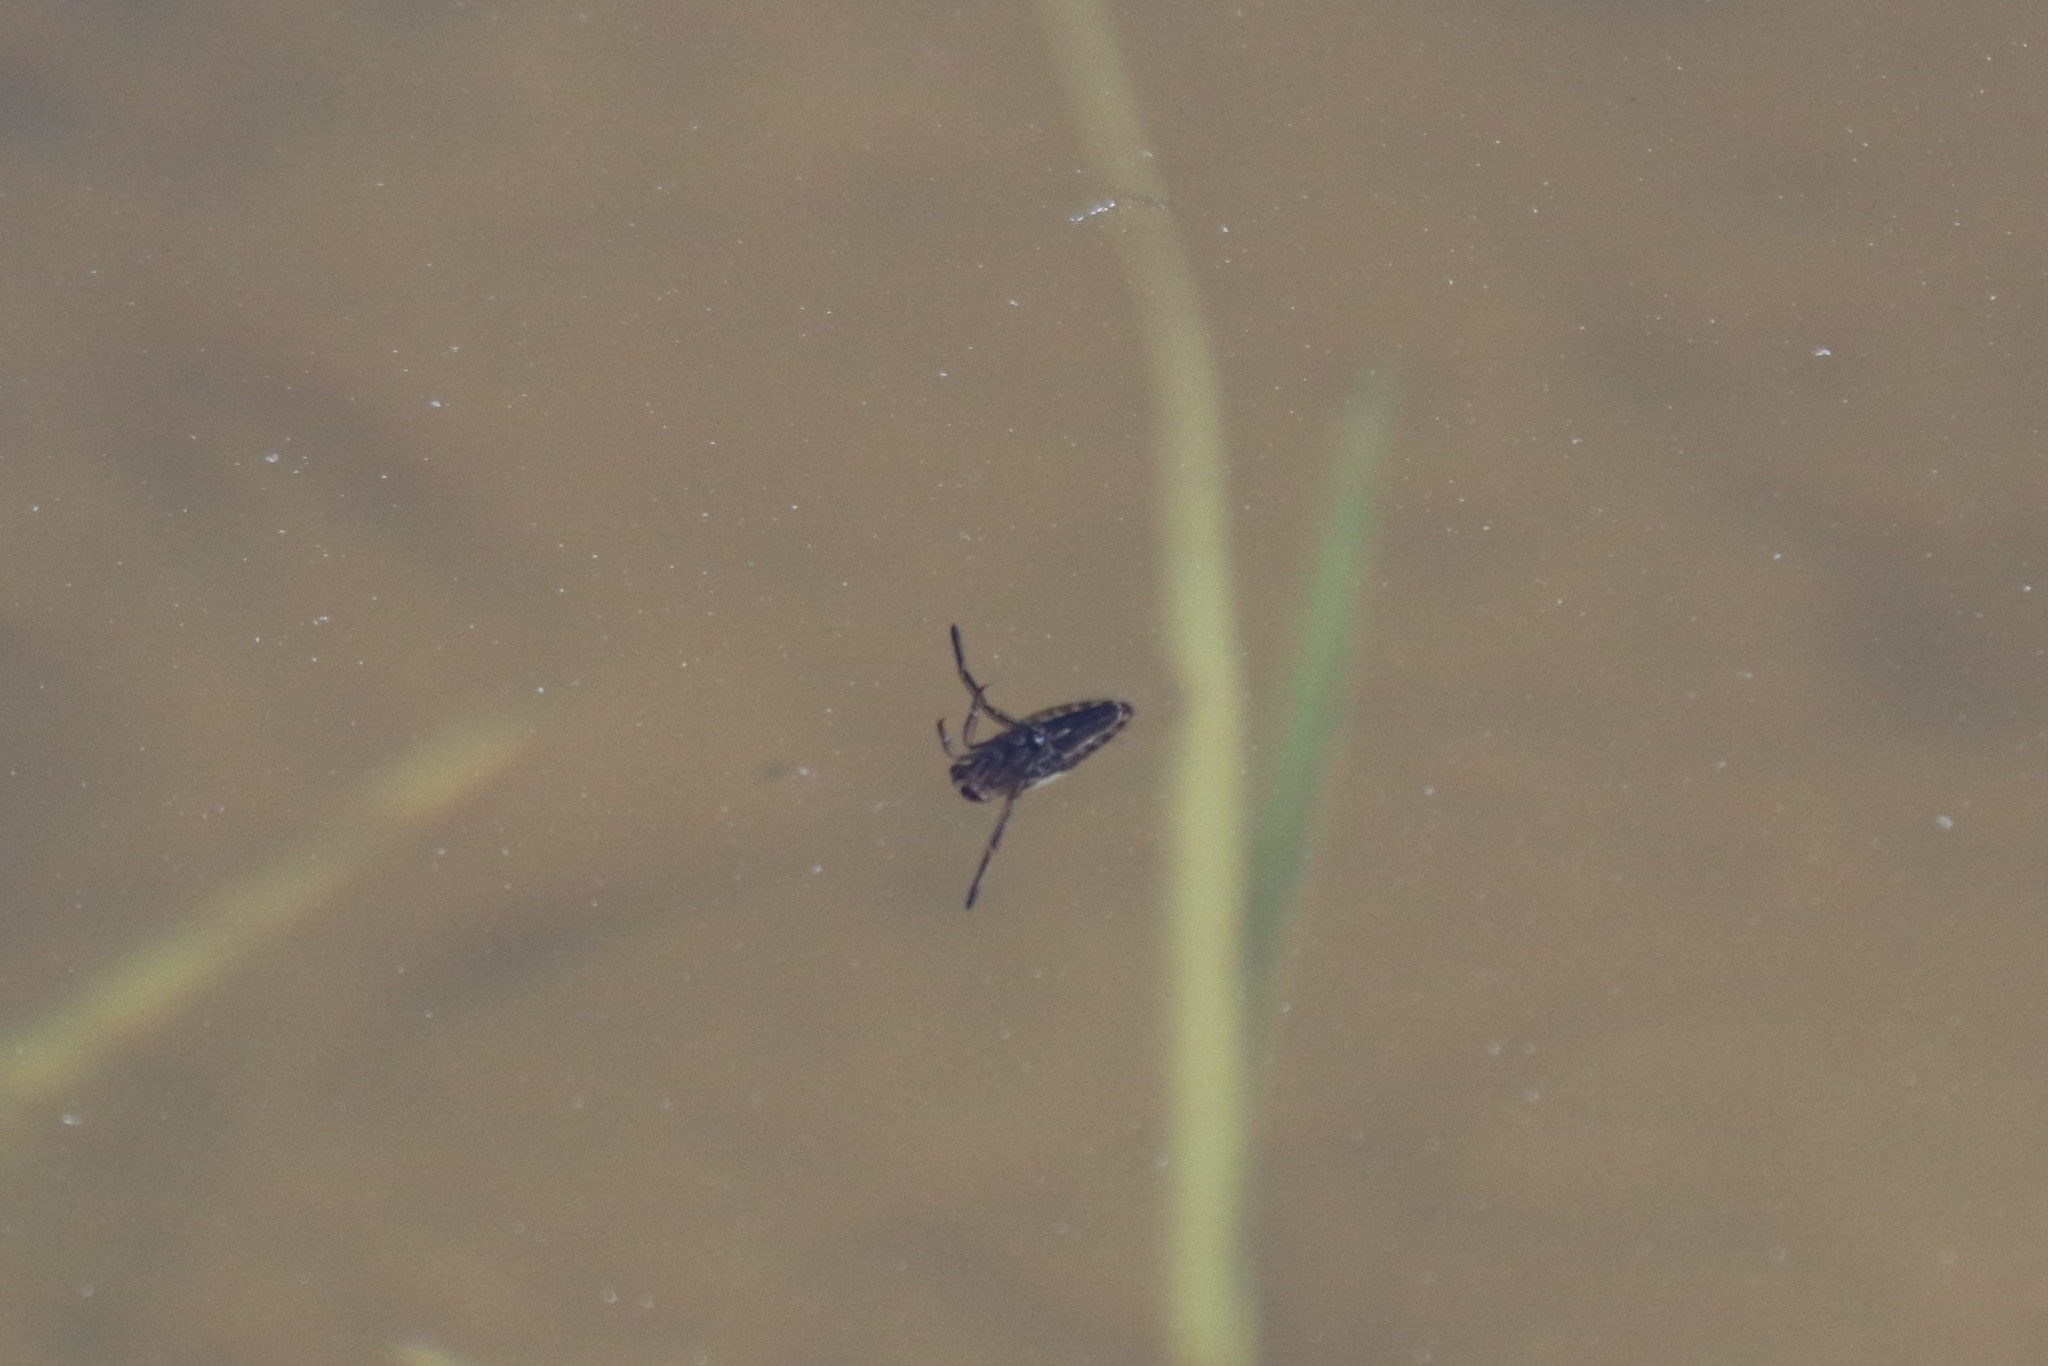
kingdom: Animalia
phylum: Arthropoda
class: Insecta
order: Hemiptera
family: Notonectidae
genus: Notonecta
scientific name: Notonecta
